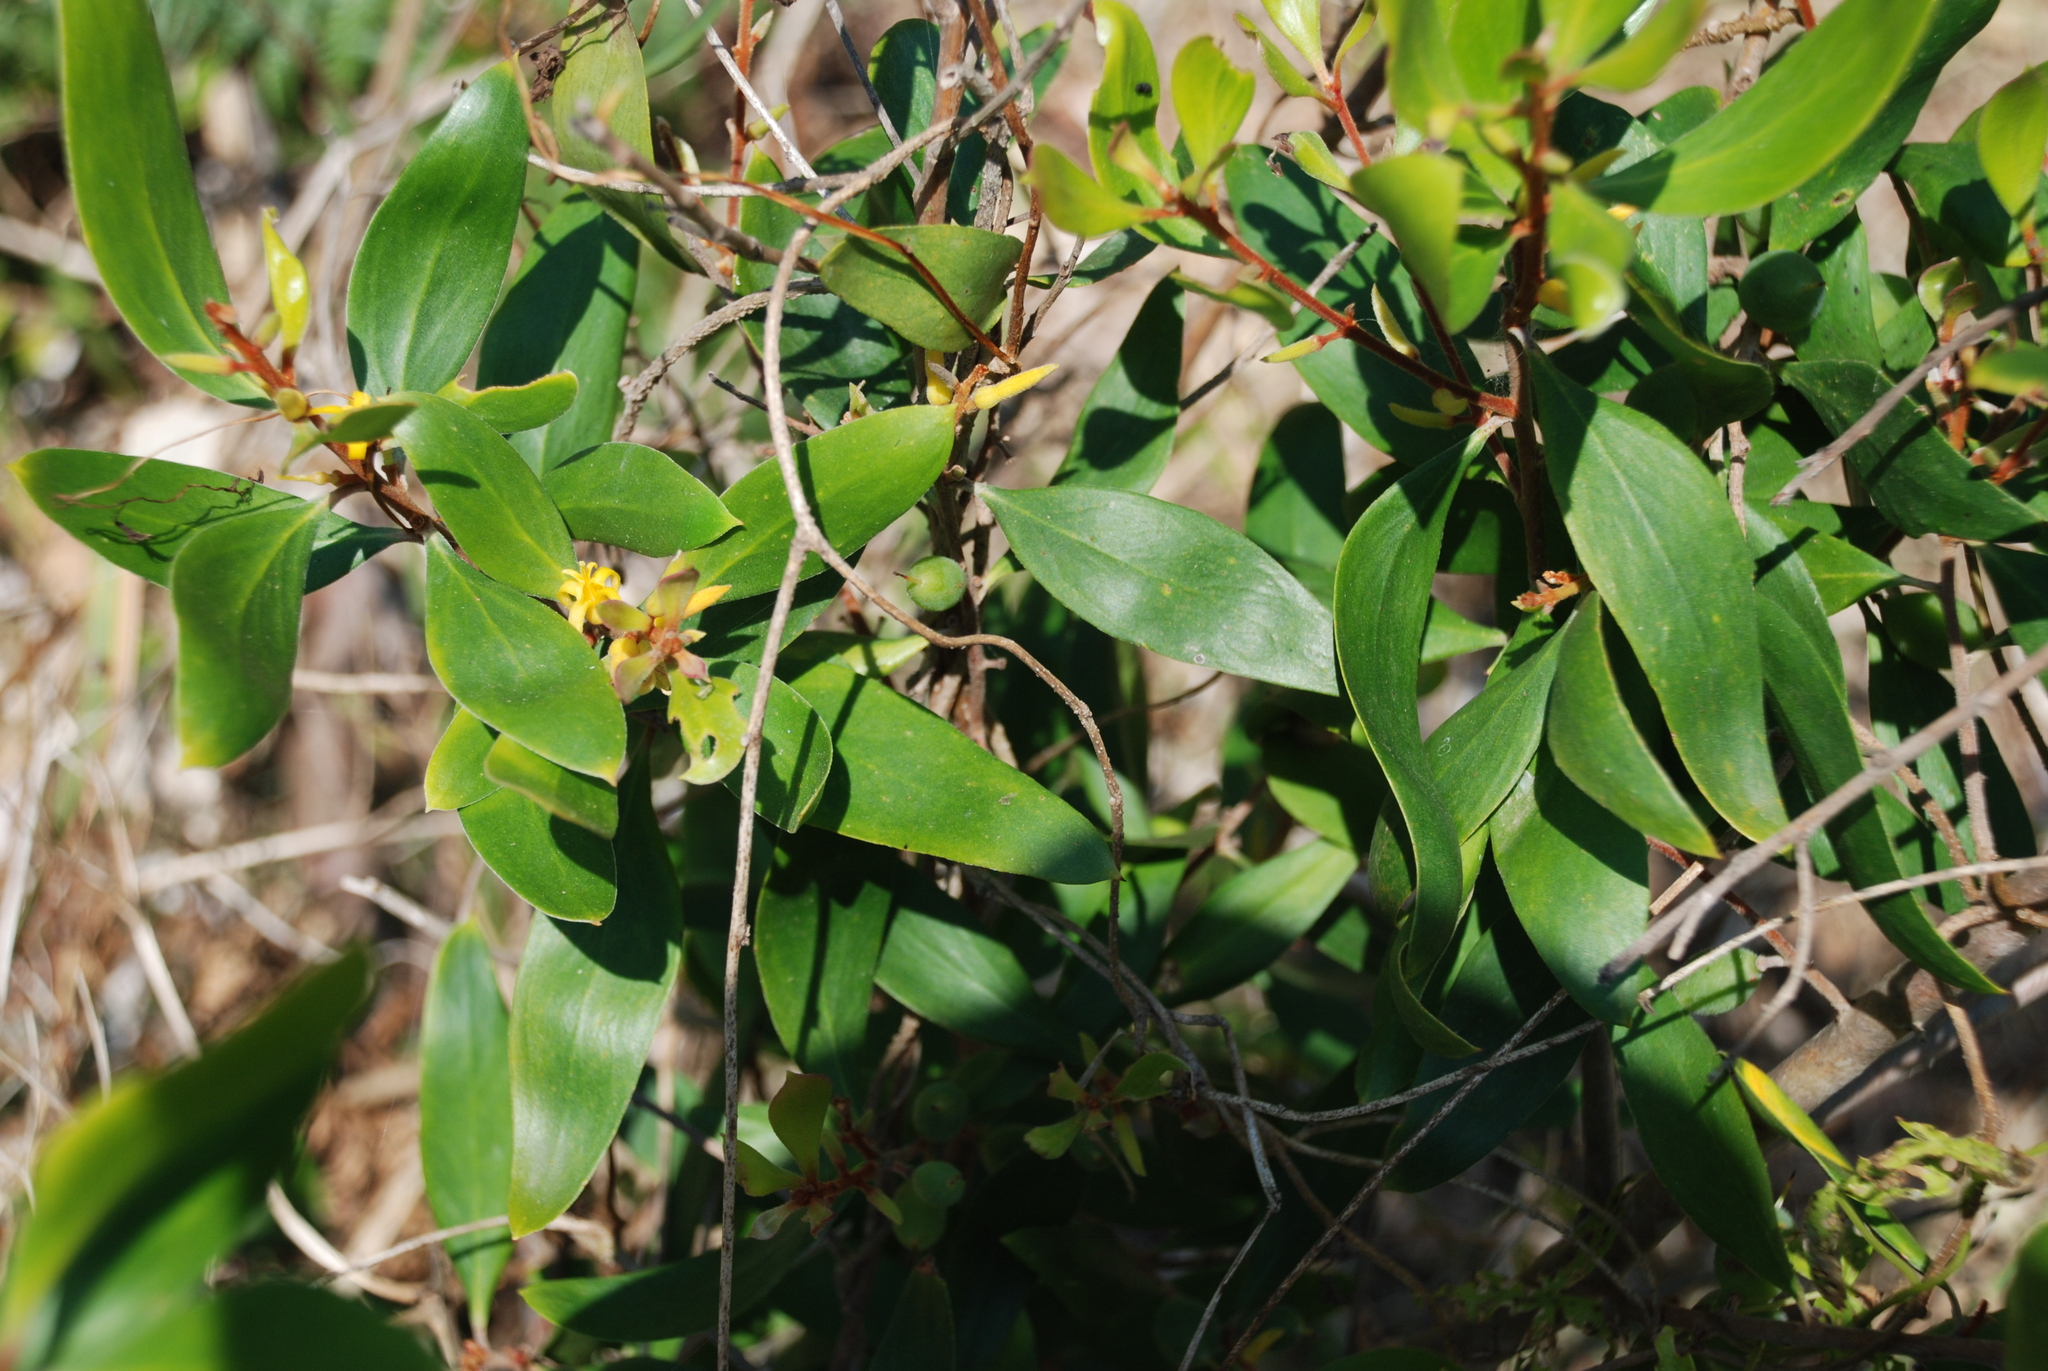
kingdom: Plantae
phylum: Tracheophyta
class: Magnoliopsida
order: Proteales
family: Proteaceae
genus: Persoonia
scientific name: Persoonia stradbrokensis
